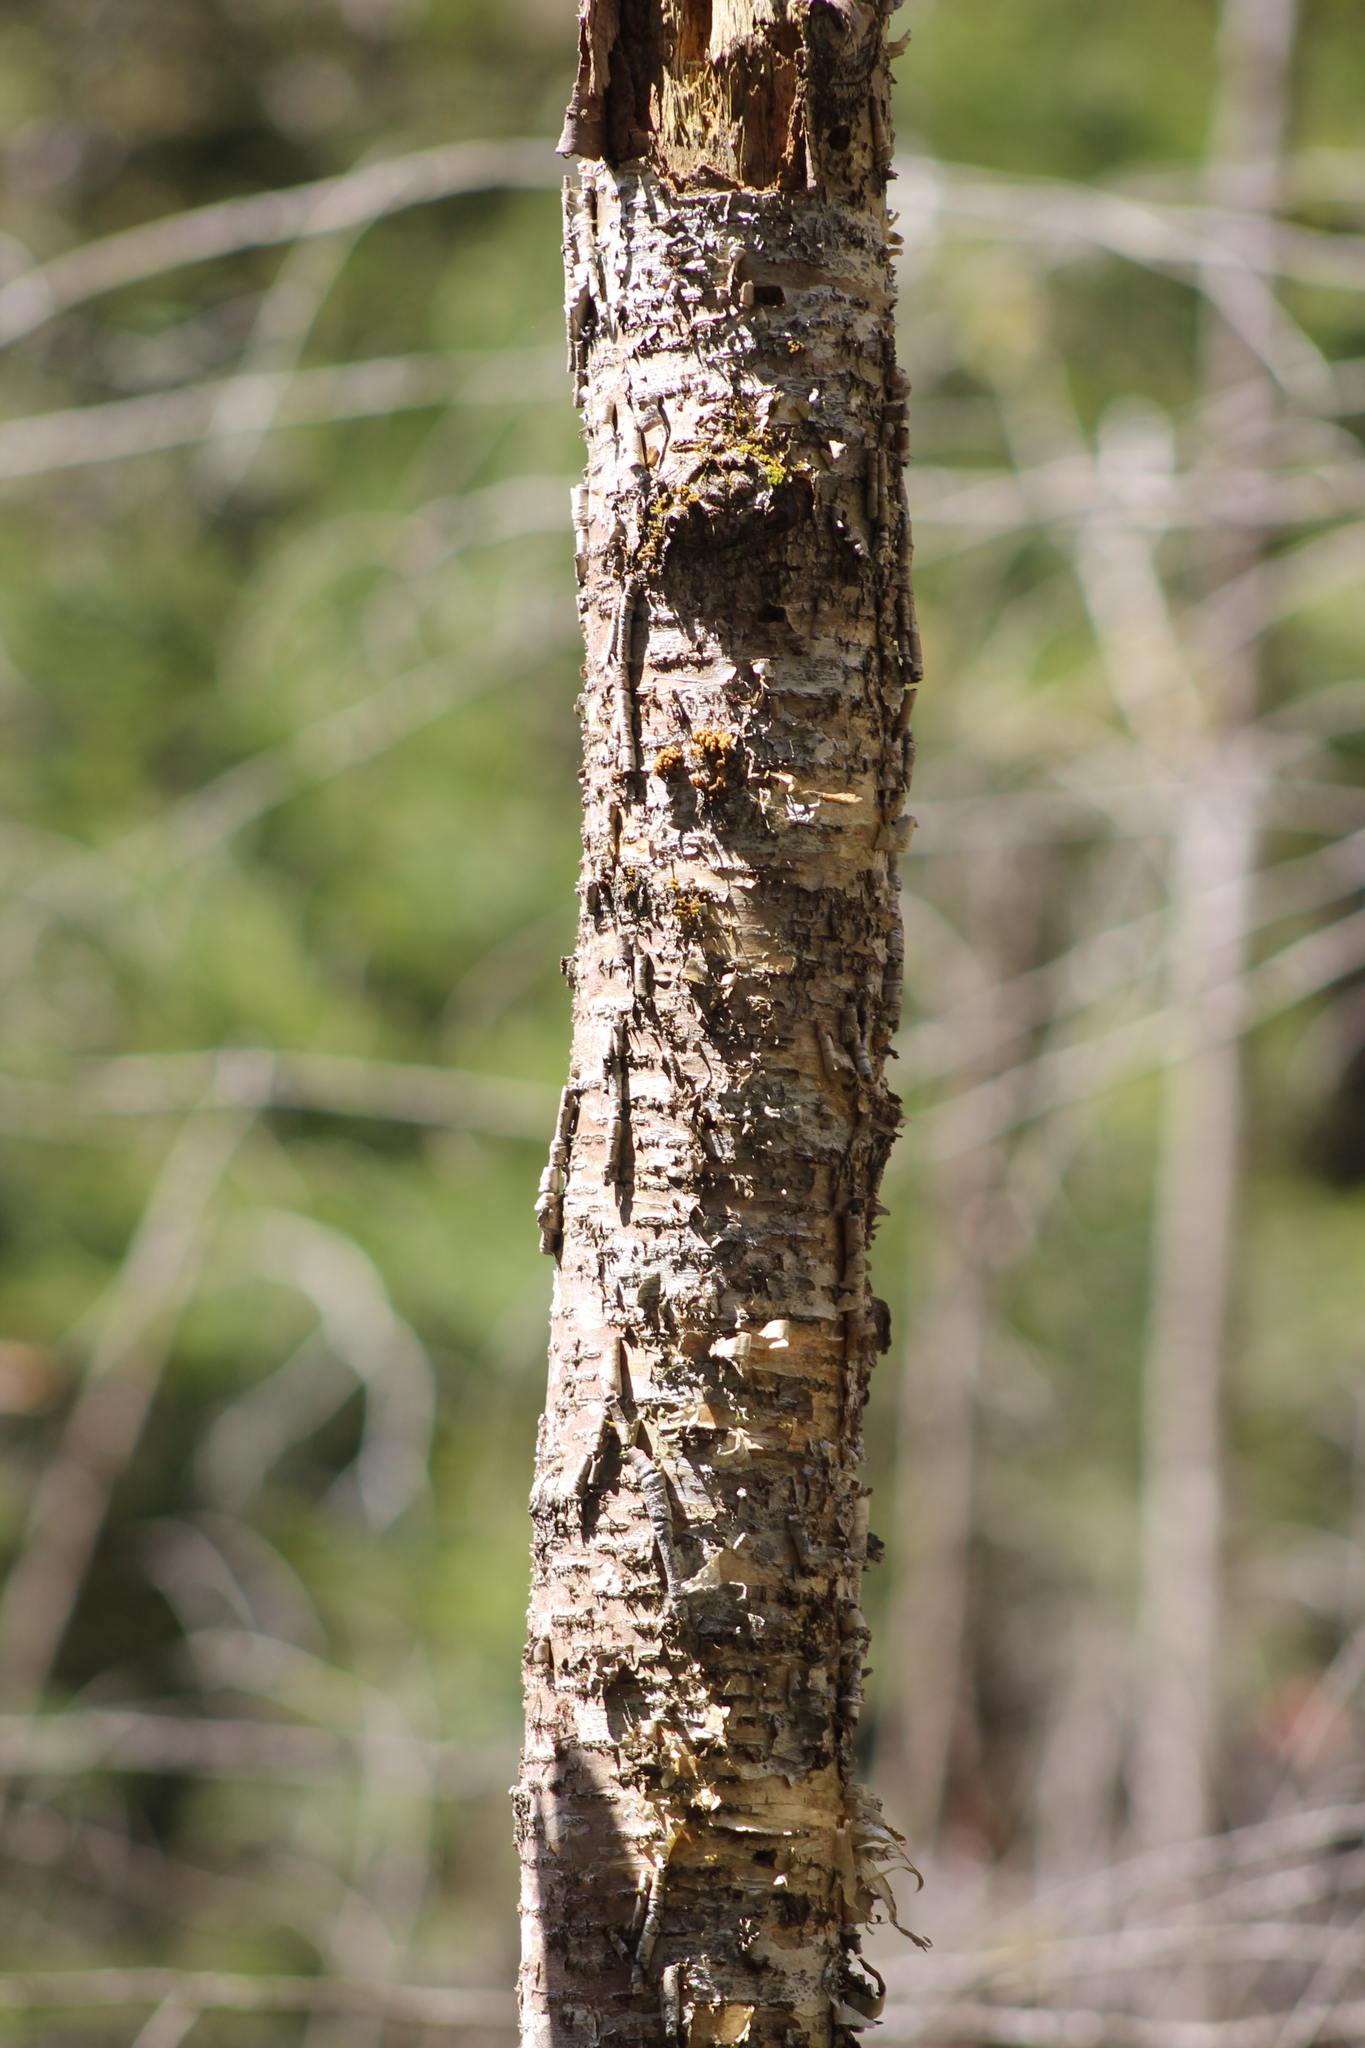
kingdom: Plantae
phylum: Tracheophyta
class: Magnoliopsida
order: Fagales
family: Betulaceae
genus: Betula
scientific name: Betula alleghaniensis
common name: Yellow birch
